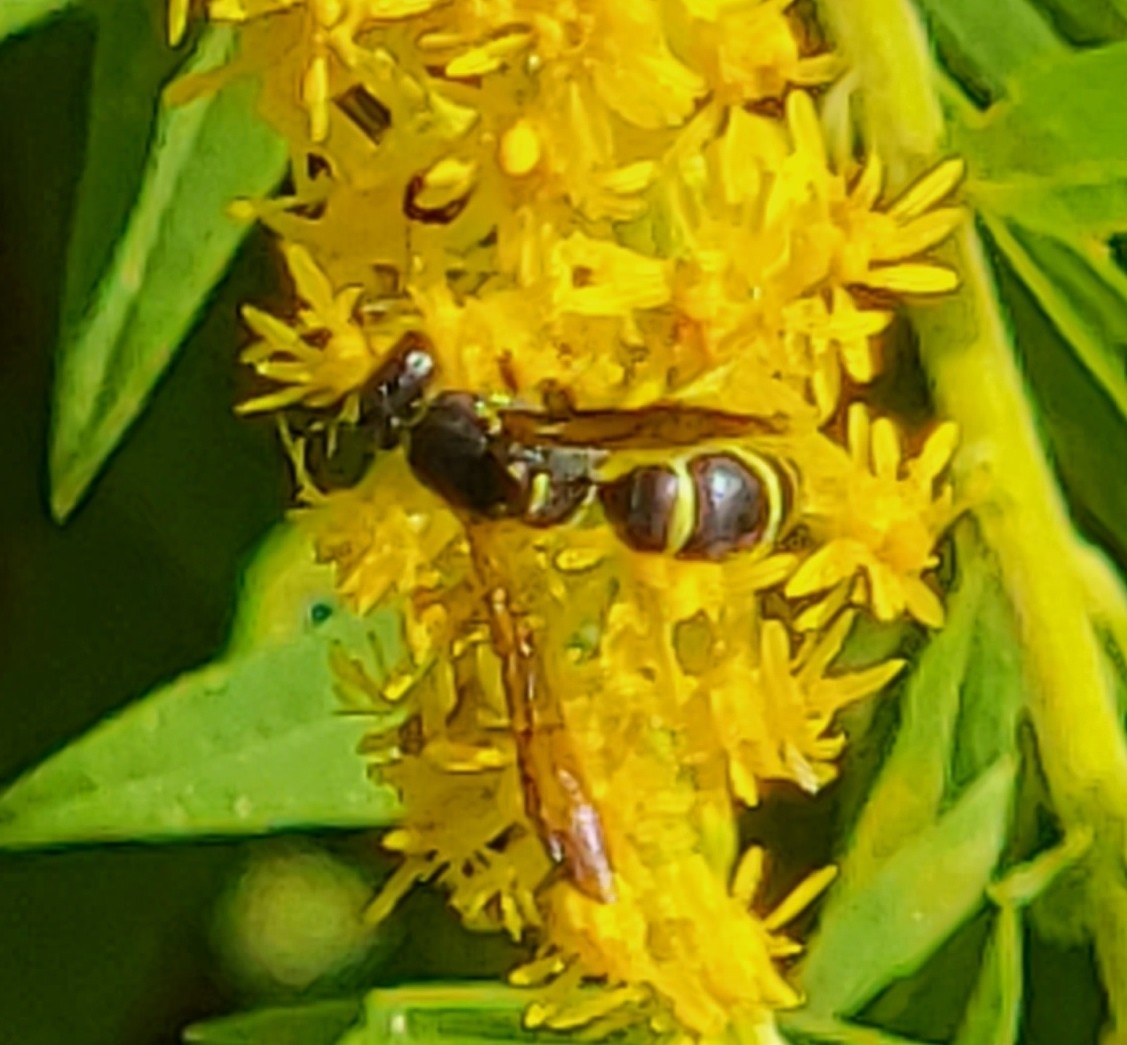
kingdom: Animalia
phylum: Arthropoda
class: Insecta
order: Hymenoptera
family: Vespidae
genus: Ancistrocerus
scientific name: Ancistrocerus adiabatus
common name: Bramble mason wasp
